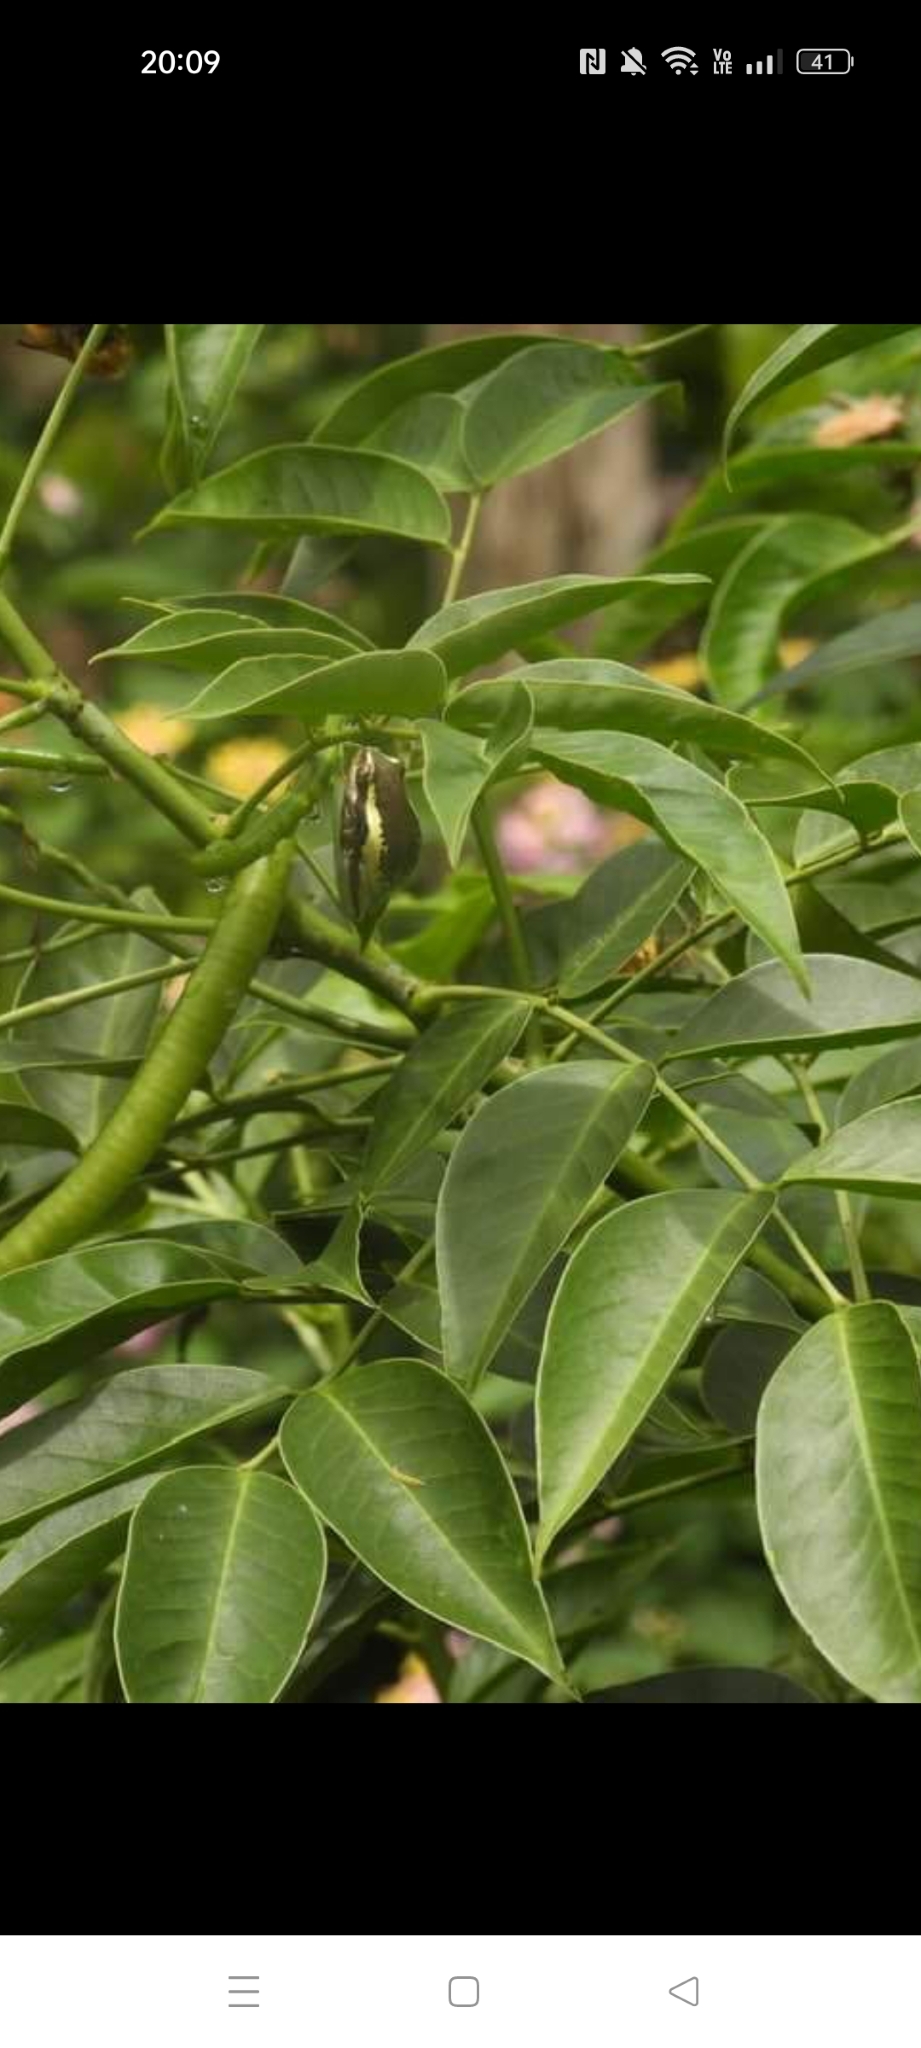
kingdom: Animalia
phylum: Chordata
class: Amphibia
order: Anura
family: Hyperoliidae
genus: Heterixalus
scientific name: Heterixalus betsileo
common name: Betsileo reed frog
